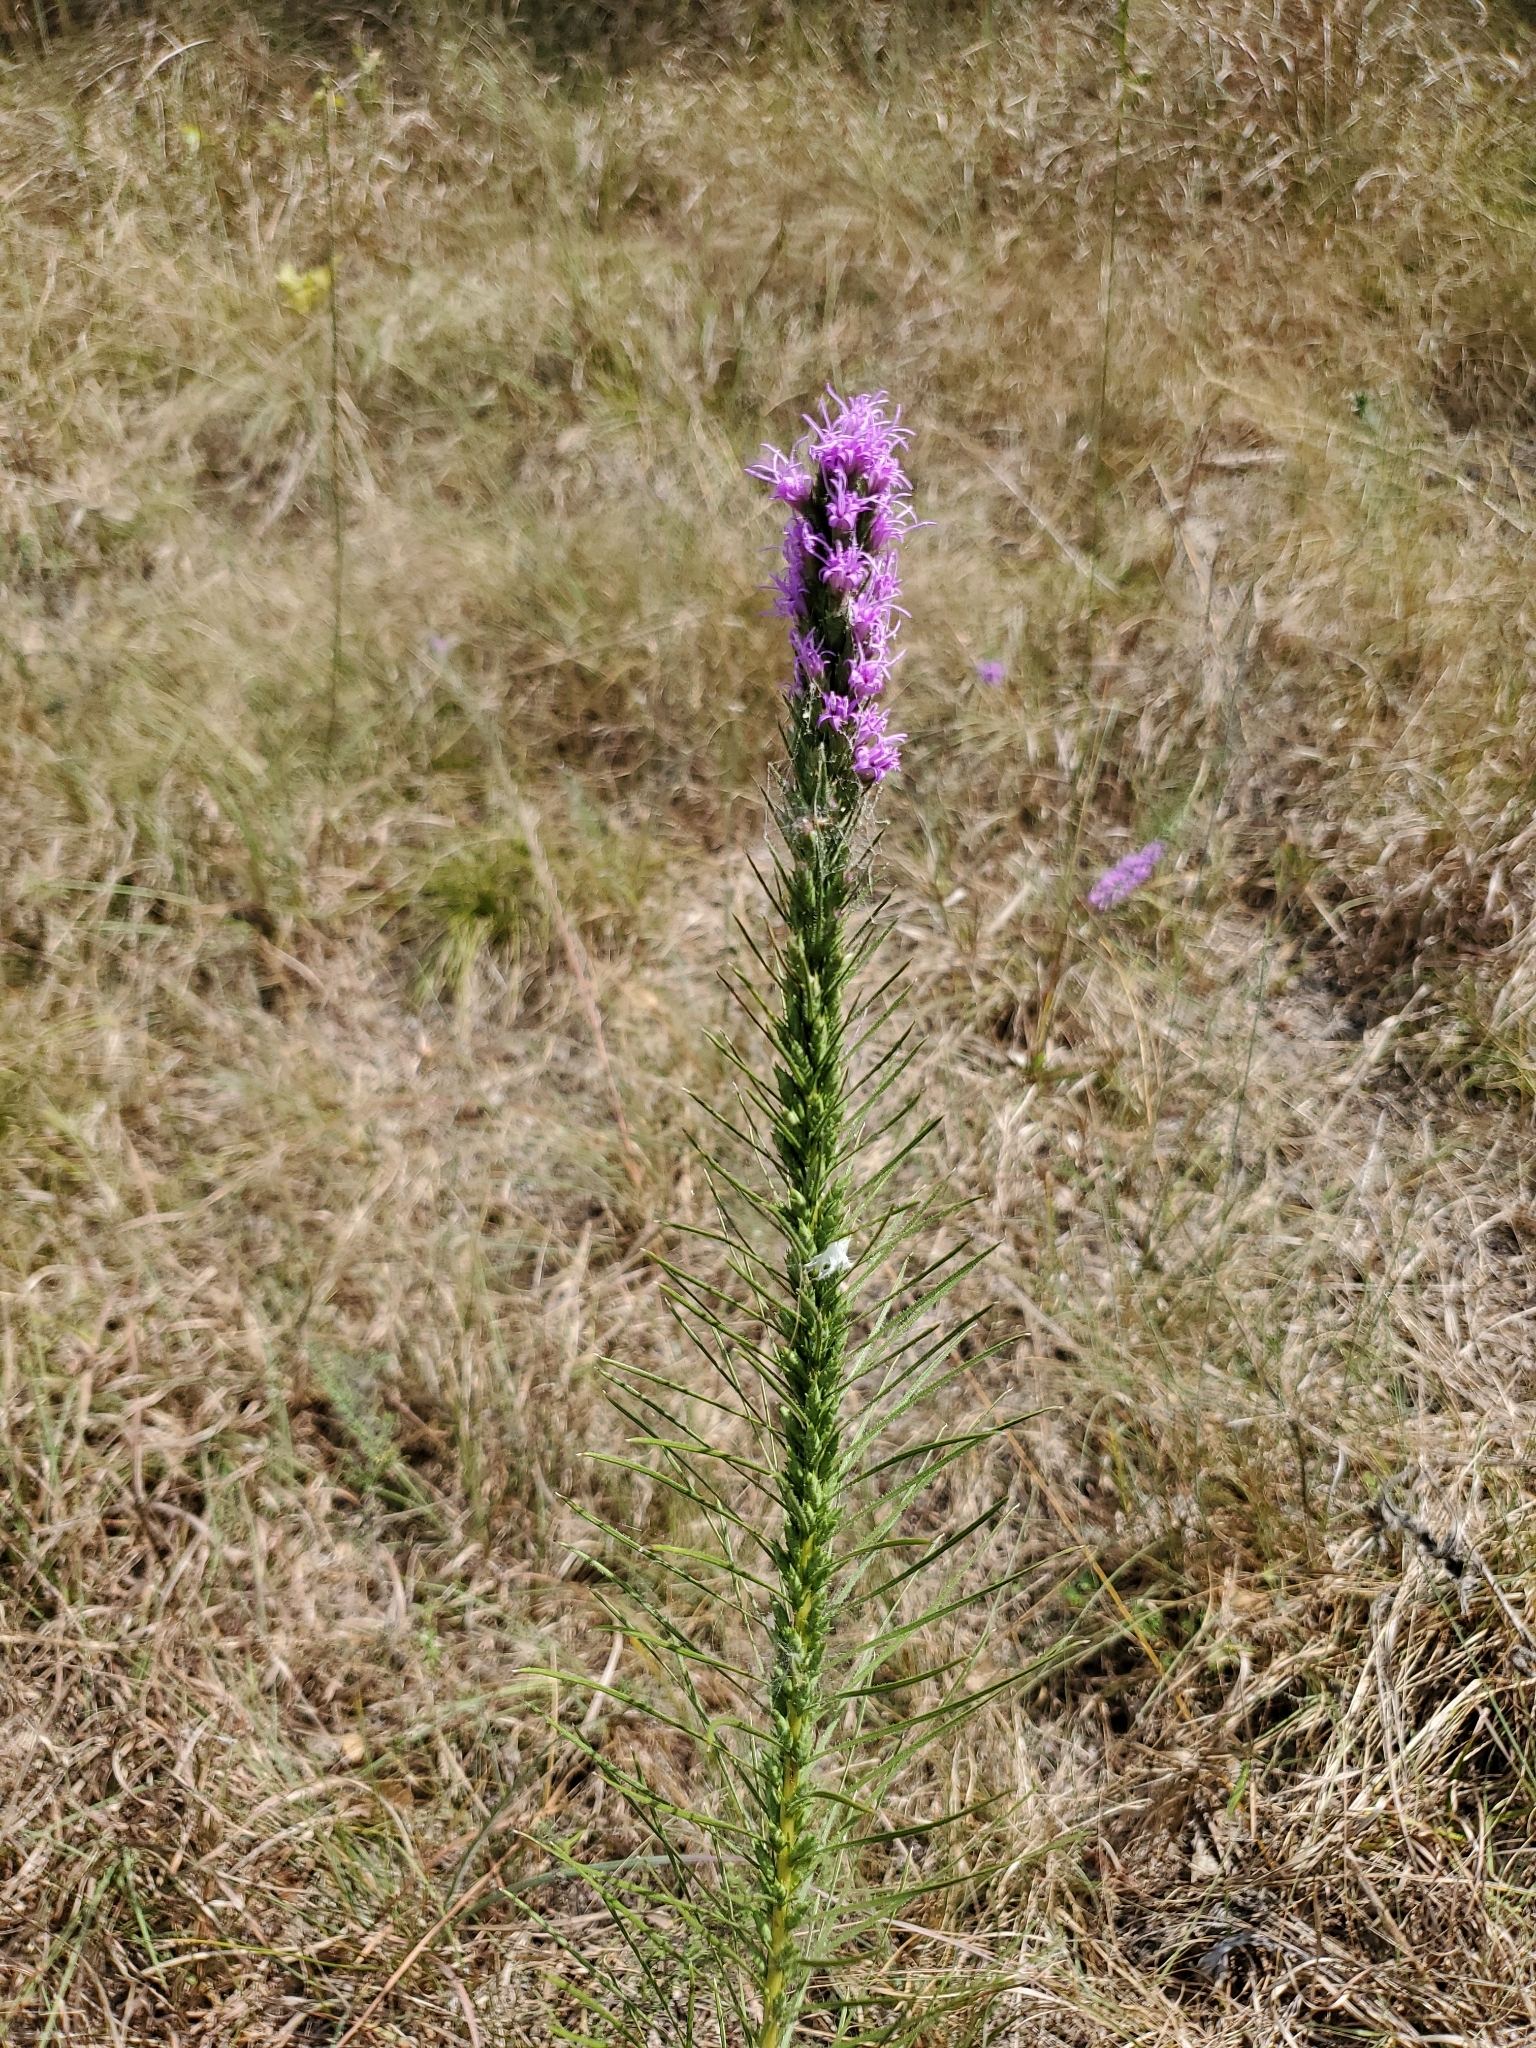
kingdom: Plantae
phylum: Tracheophyta
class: Magnoliopsida
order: Asterales
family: Asteraceae
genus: Liatris
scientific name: Liatris punctata
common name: Dotted gayfeather
